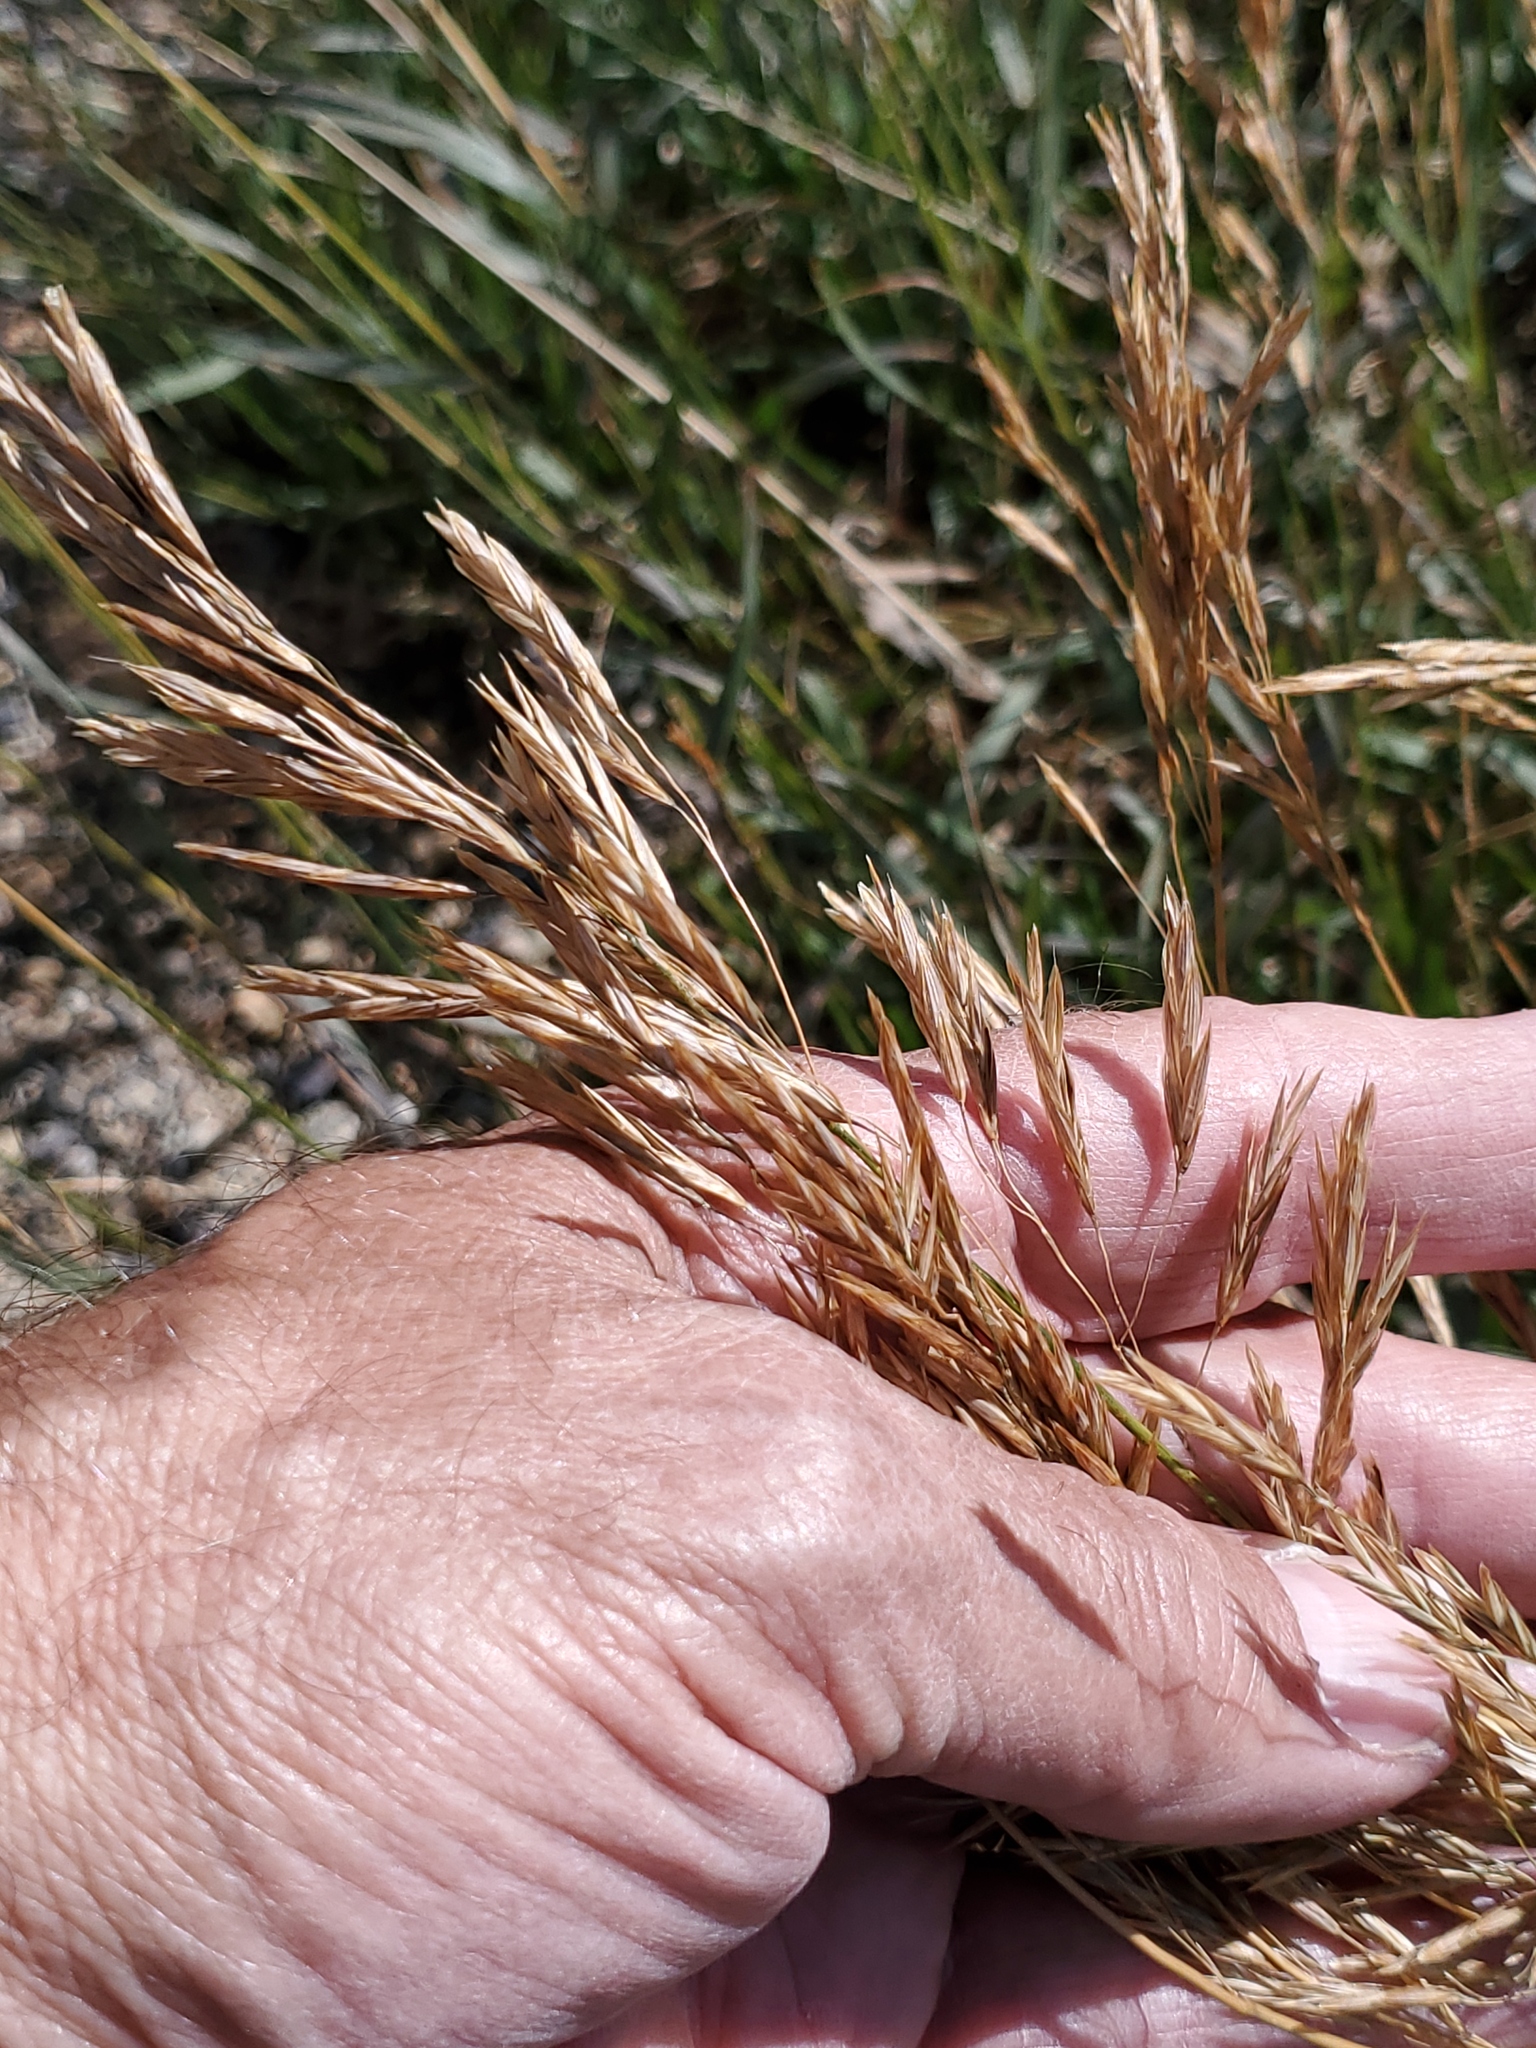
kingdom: Plantae
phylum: Tracheophyta
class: Liliopsida
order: Poales
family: Poaceae
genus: Bromus
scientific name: Bromus inermis
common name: Smooth brome
